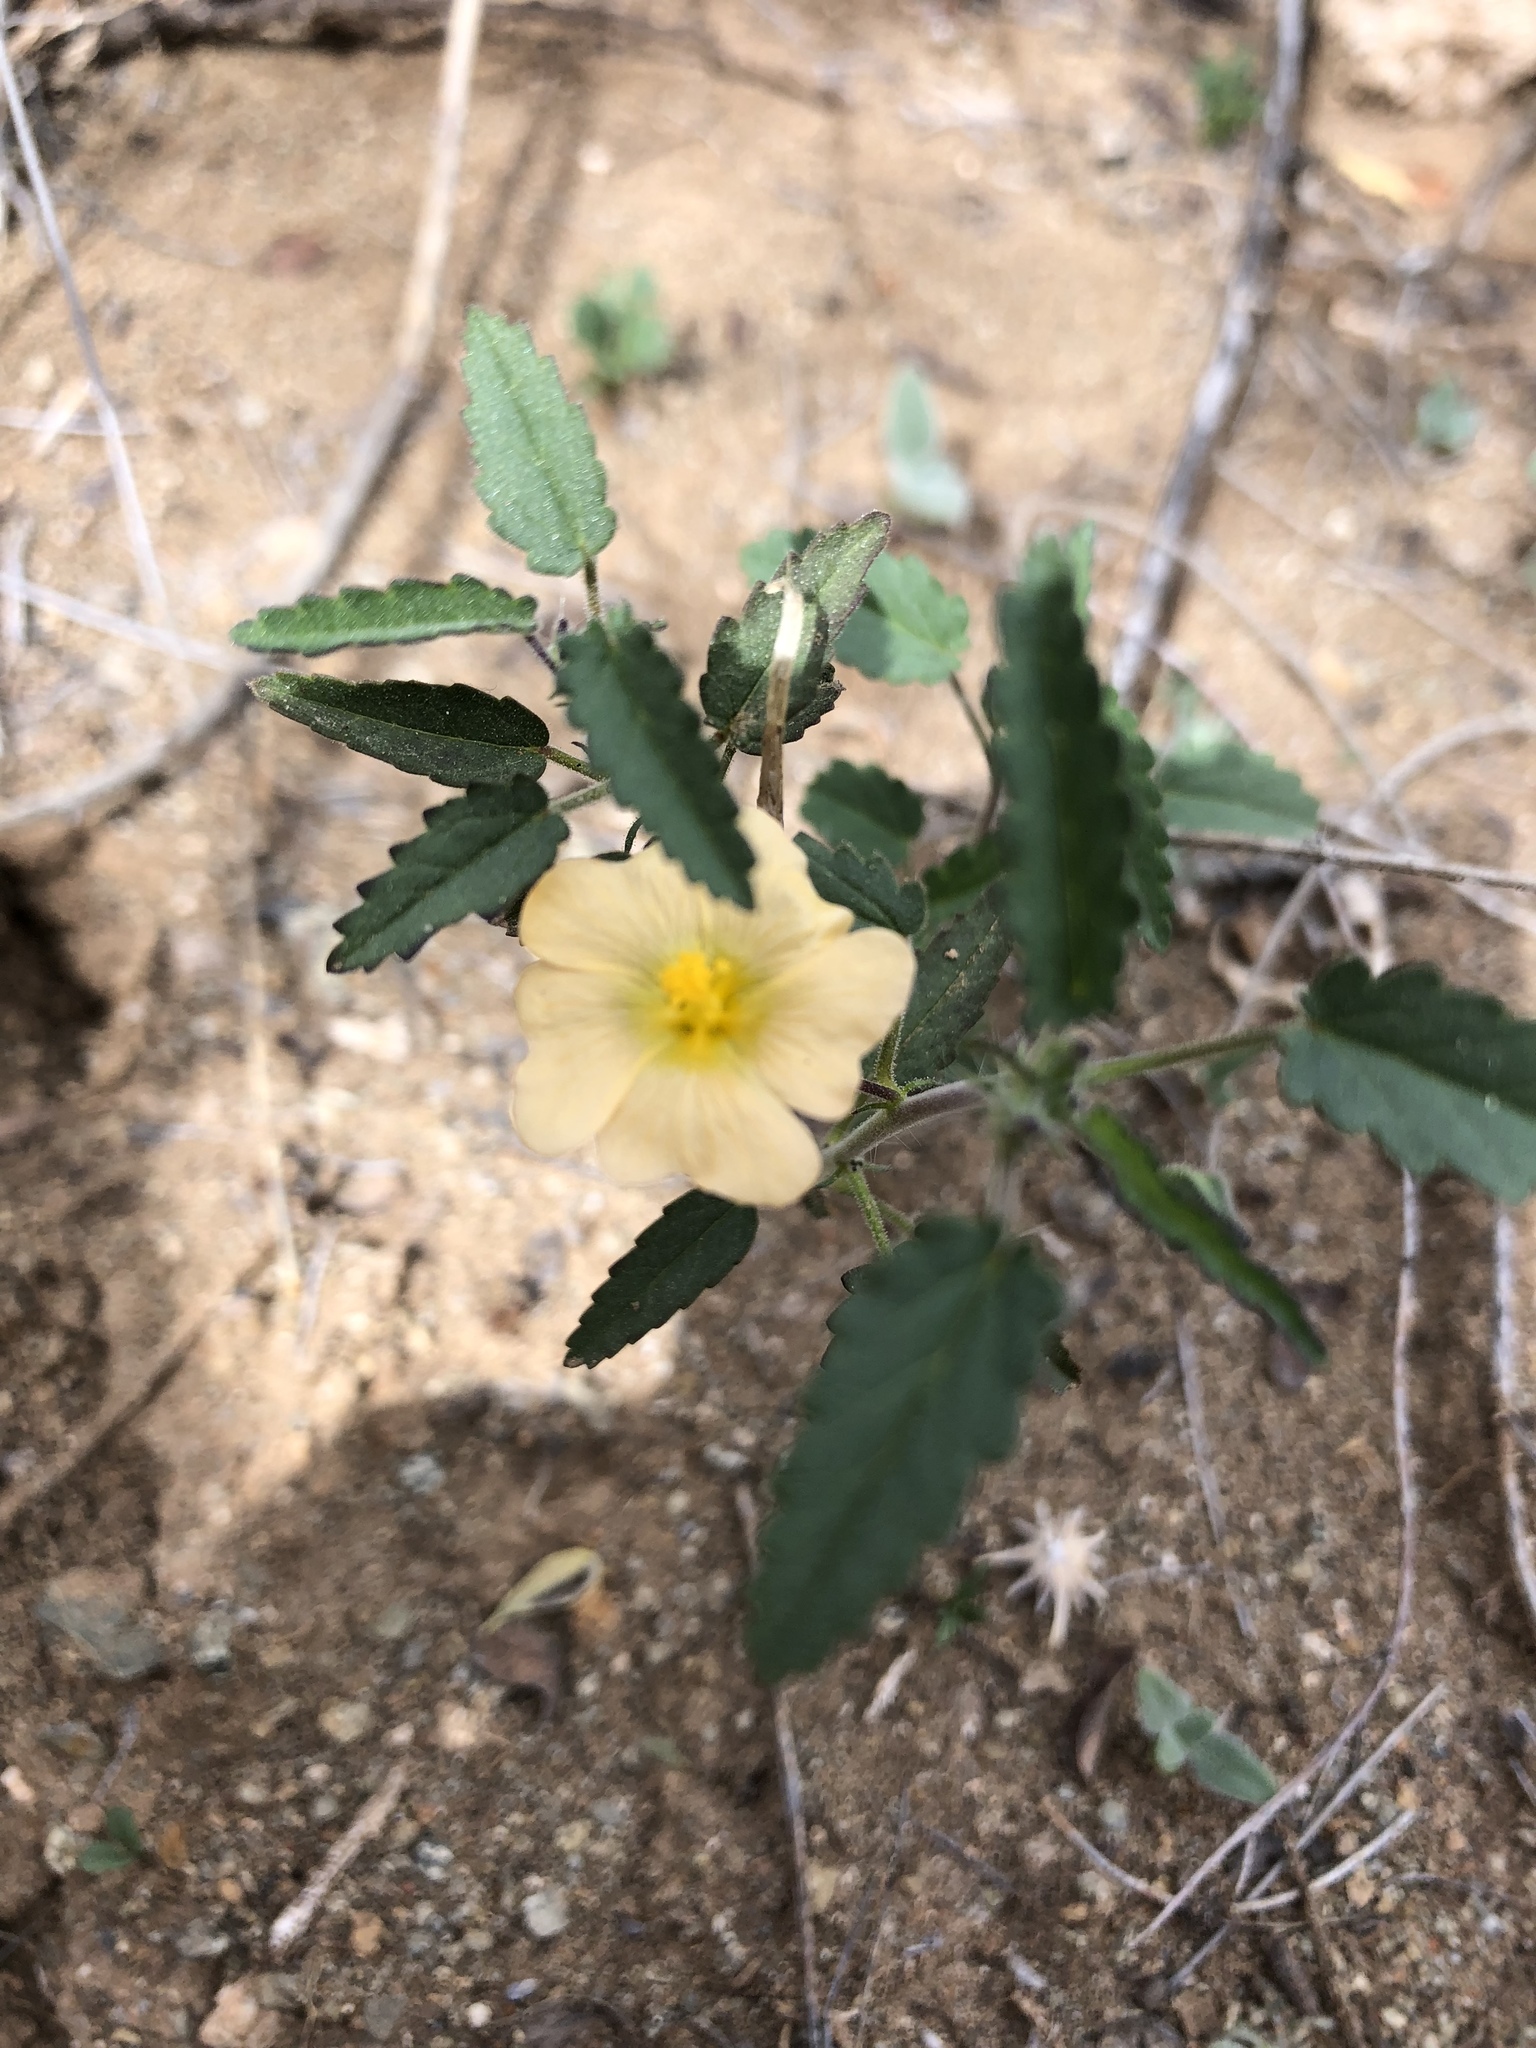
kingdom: Plantae
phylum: Tracheophyta
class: Magnoliopsida
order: Malvales
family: Malvaceae
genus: Sida
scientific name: Sida abutilifolia
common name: Spreading fanpetals
